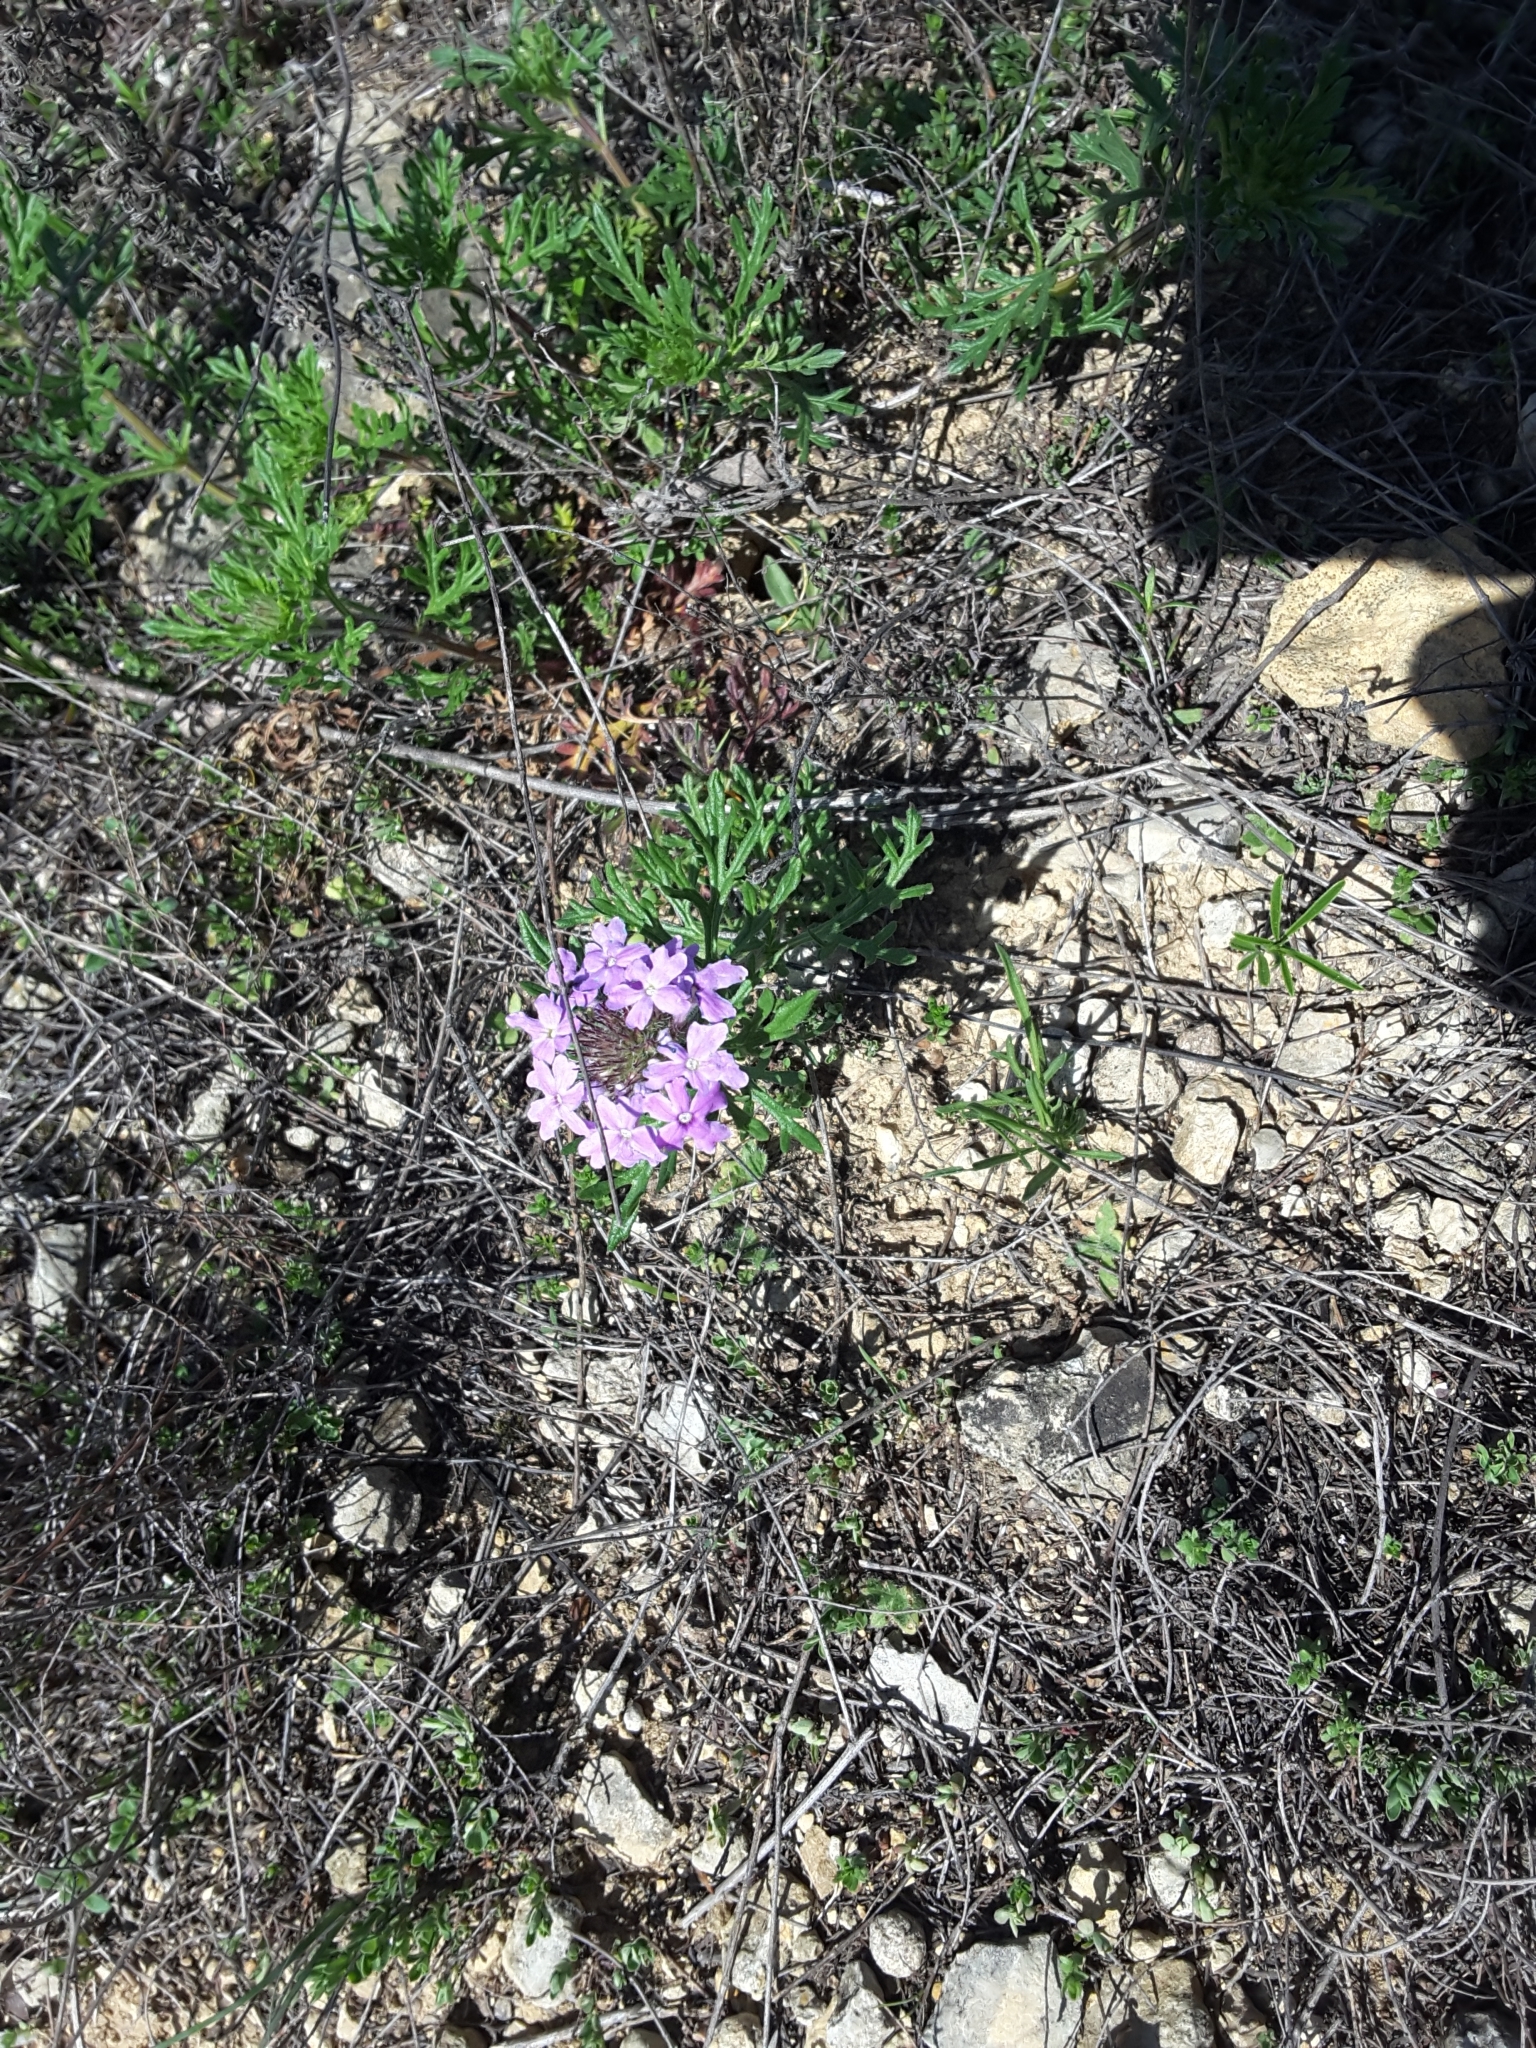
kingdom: Plantae
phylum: Tracheophyta
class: Magnoliopsida
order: Lamiales
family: Verbenaceae
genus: Verbena
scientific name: Verbena bipinnatifida
